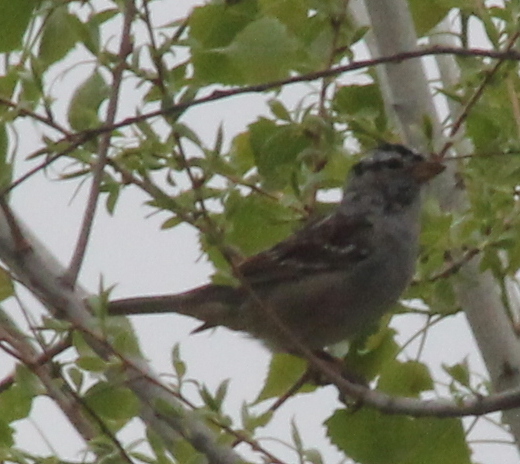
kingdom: Animalia
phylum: Chordata
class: Aves
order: Passeriformes
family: Passerellidae
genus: Zonotrichia
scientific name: Zonotrichia leucophrys
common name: White-crowned sparrow
